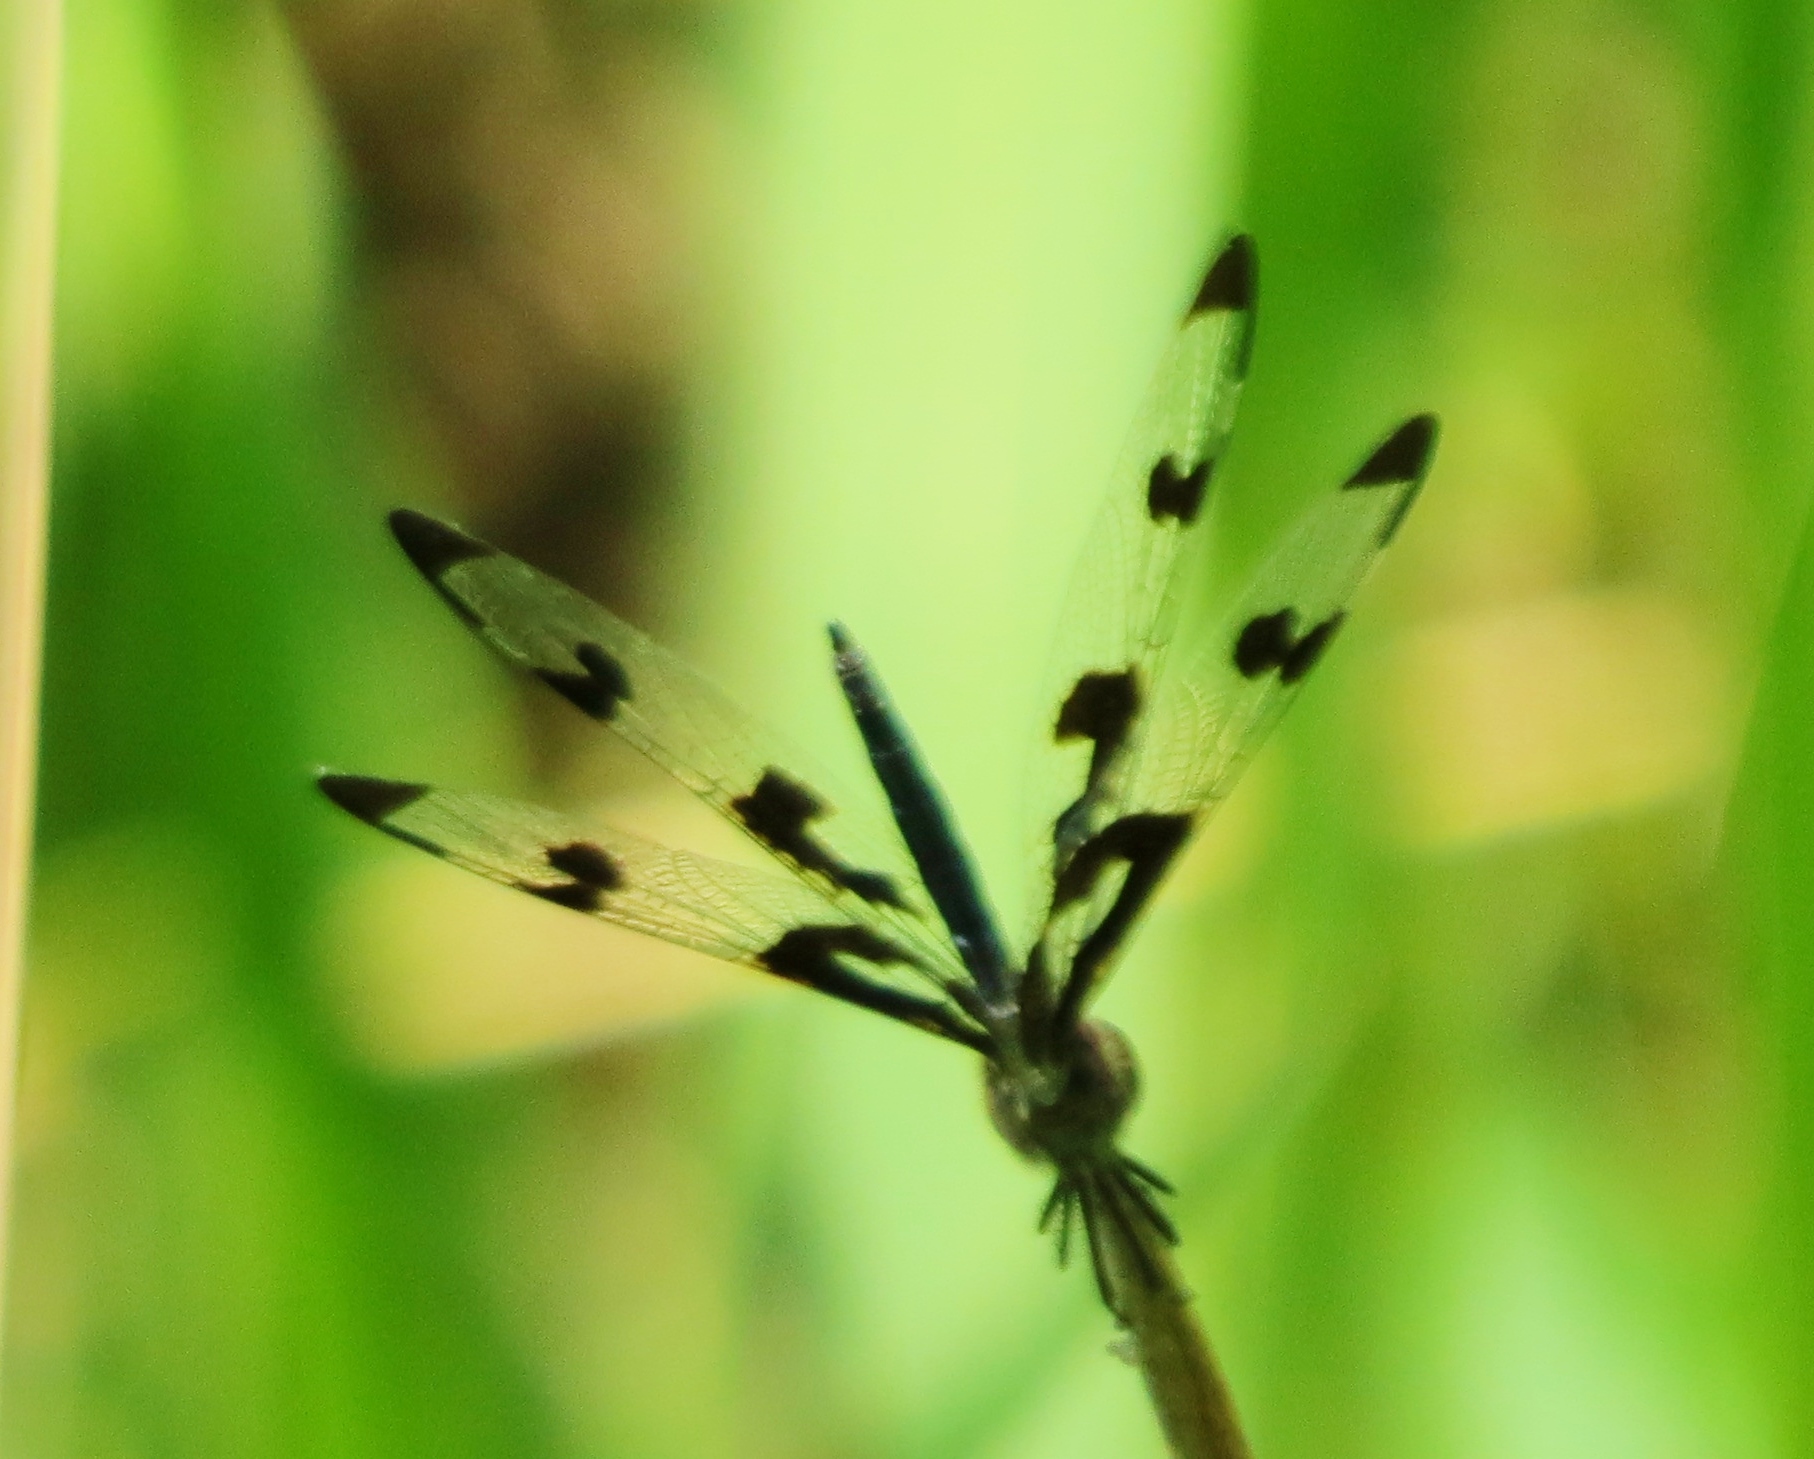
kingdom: Animalia
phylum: Arthropoda
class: Insecta
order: Odonata
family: Libellulidae
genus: Celithemis
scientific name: Celithemis fasciata
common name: Banded pennant
